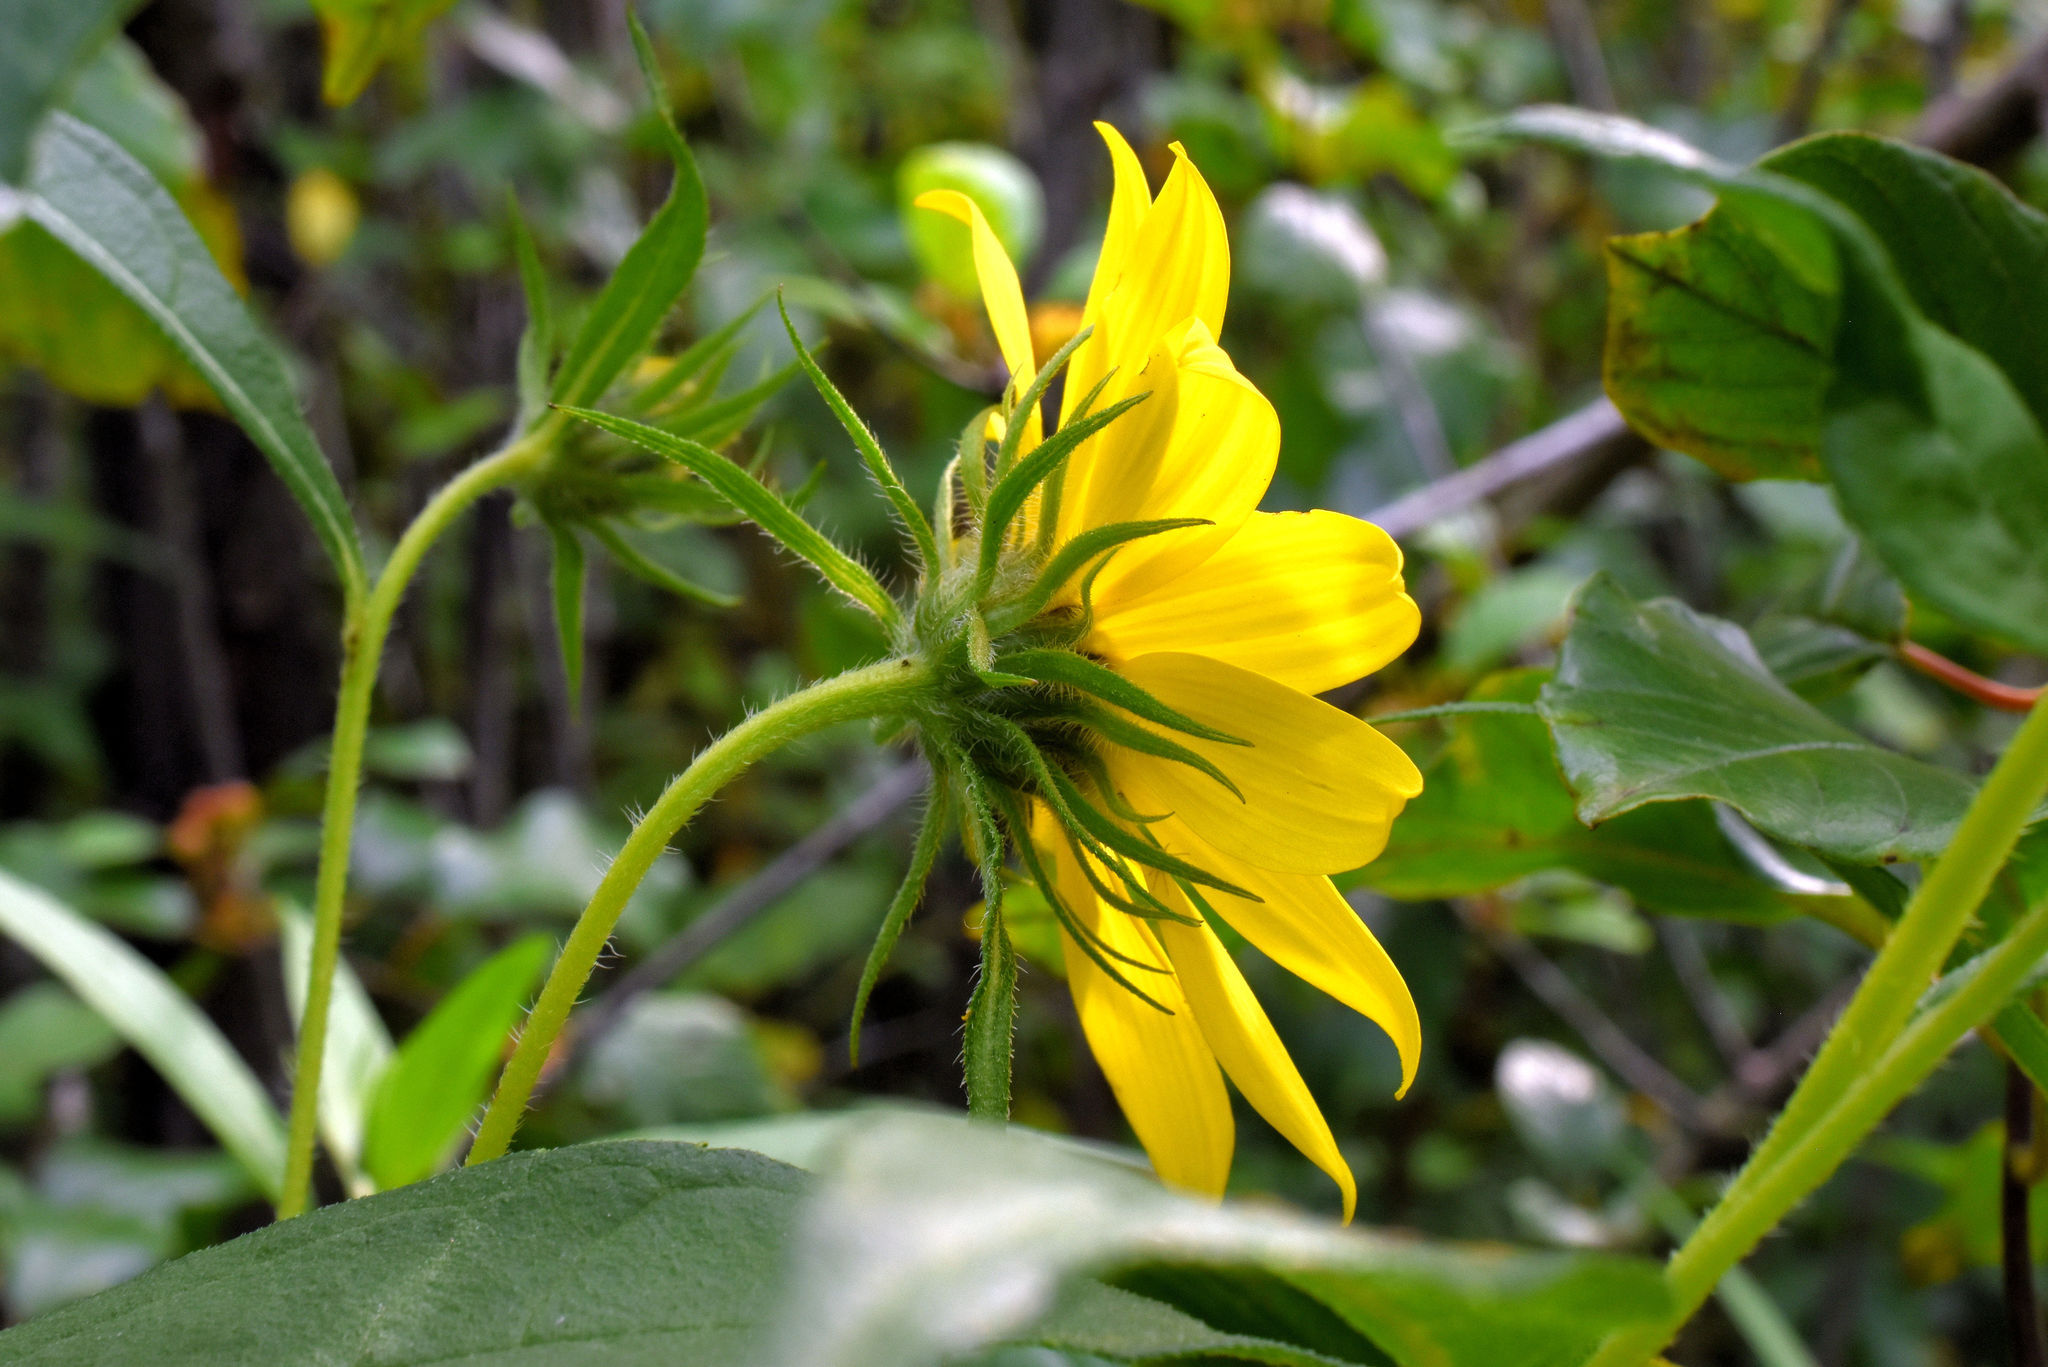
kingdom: Plantae
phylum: Tracheophyta
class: Magnoliopsida
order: Asterales
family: Asteraceae
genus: Helianthus
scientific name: Helianthus giganteus
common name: Giant sunflower
